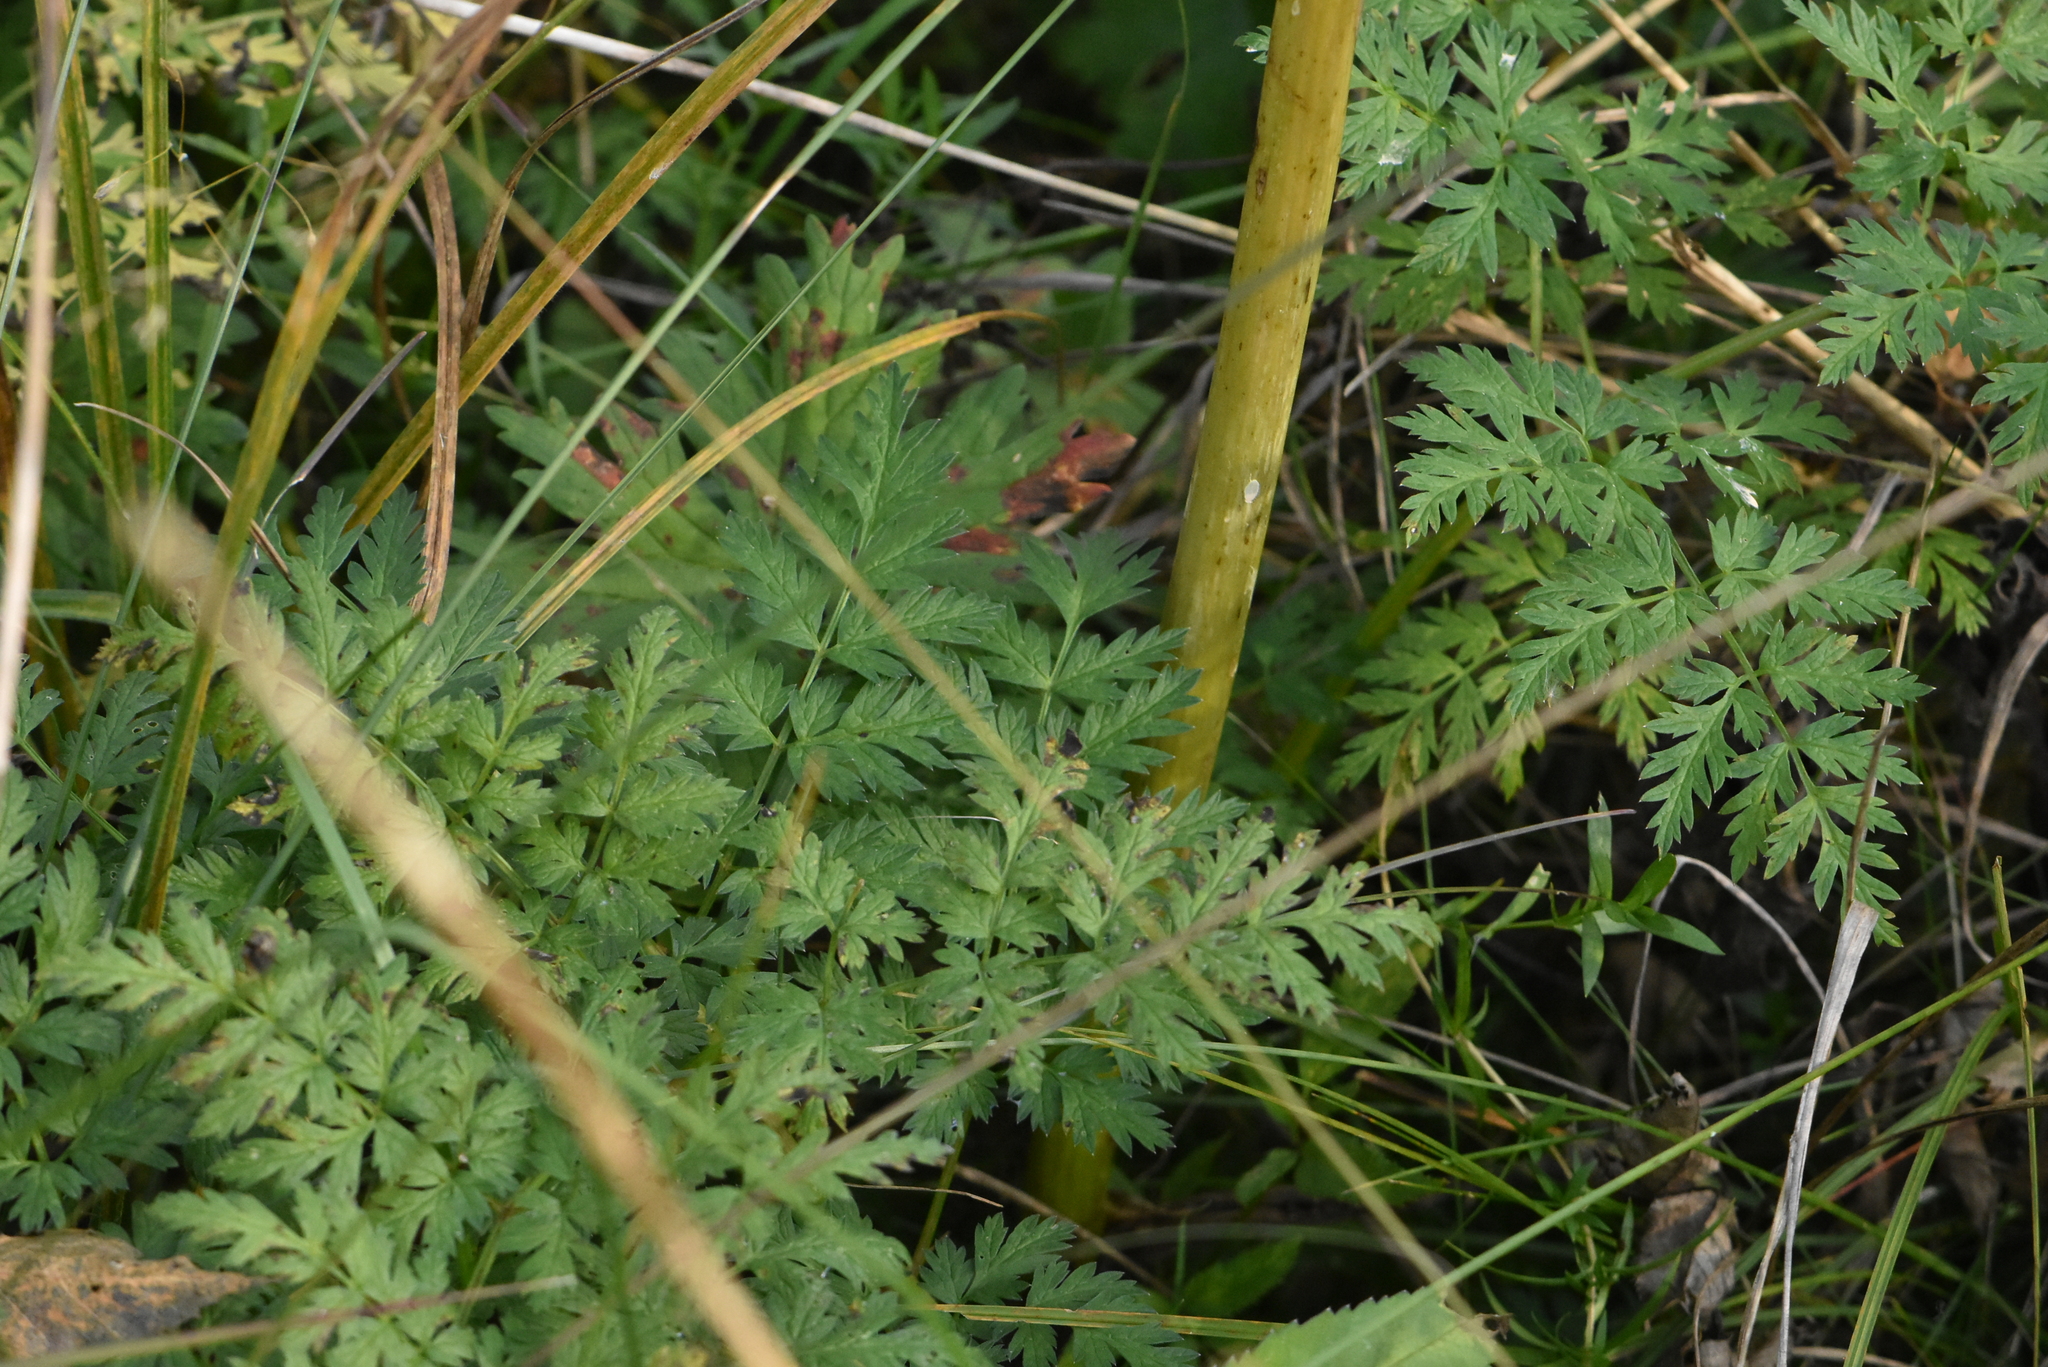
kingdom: Plantae
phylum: Tracheophyta
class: Magnoliopsida
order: Apiales
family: Apiaceae
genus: Anthriscus
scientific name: Anthriscus sylvestris
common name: Cow parsley
